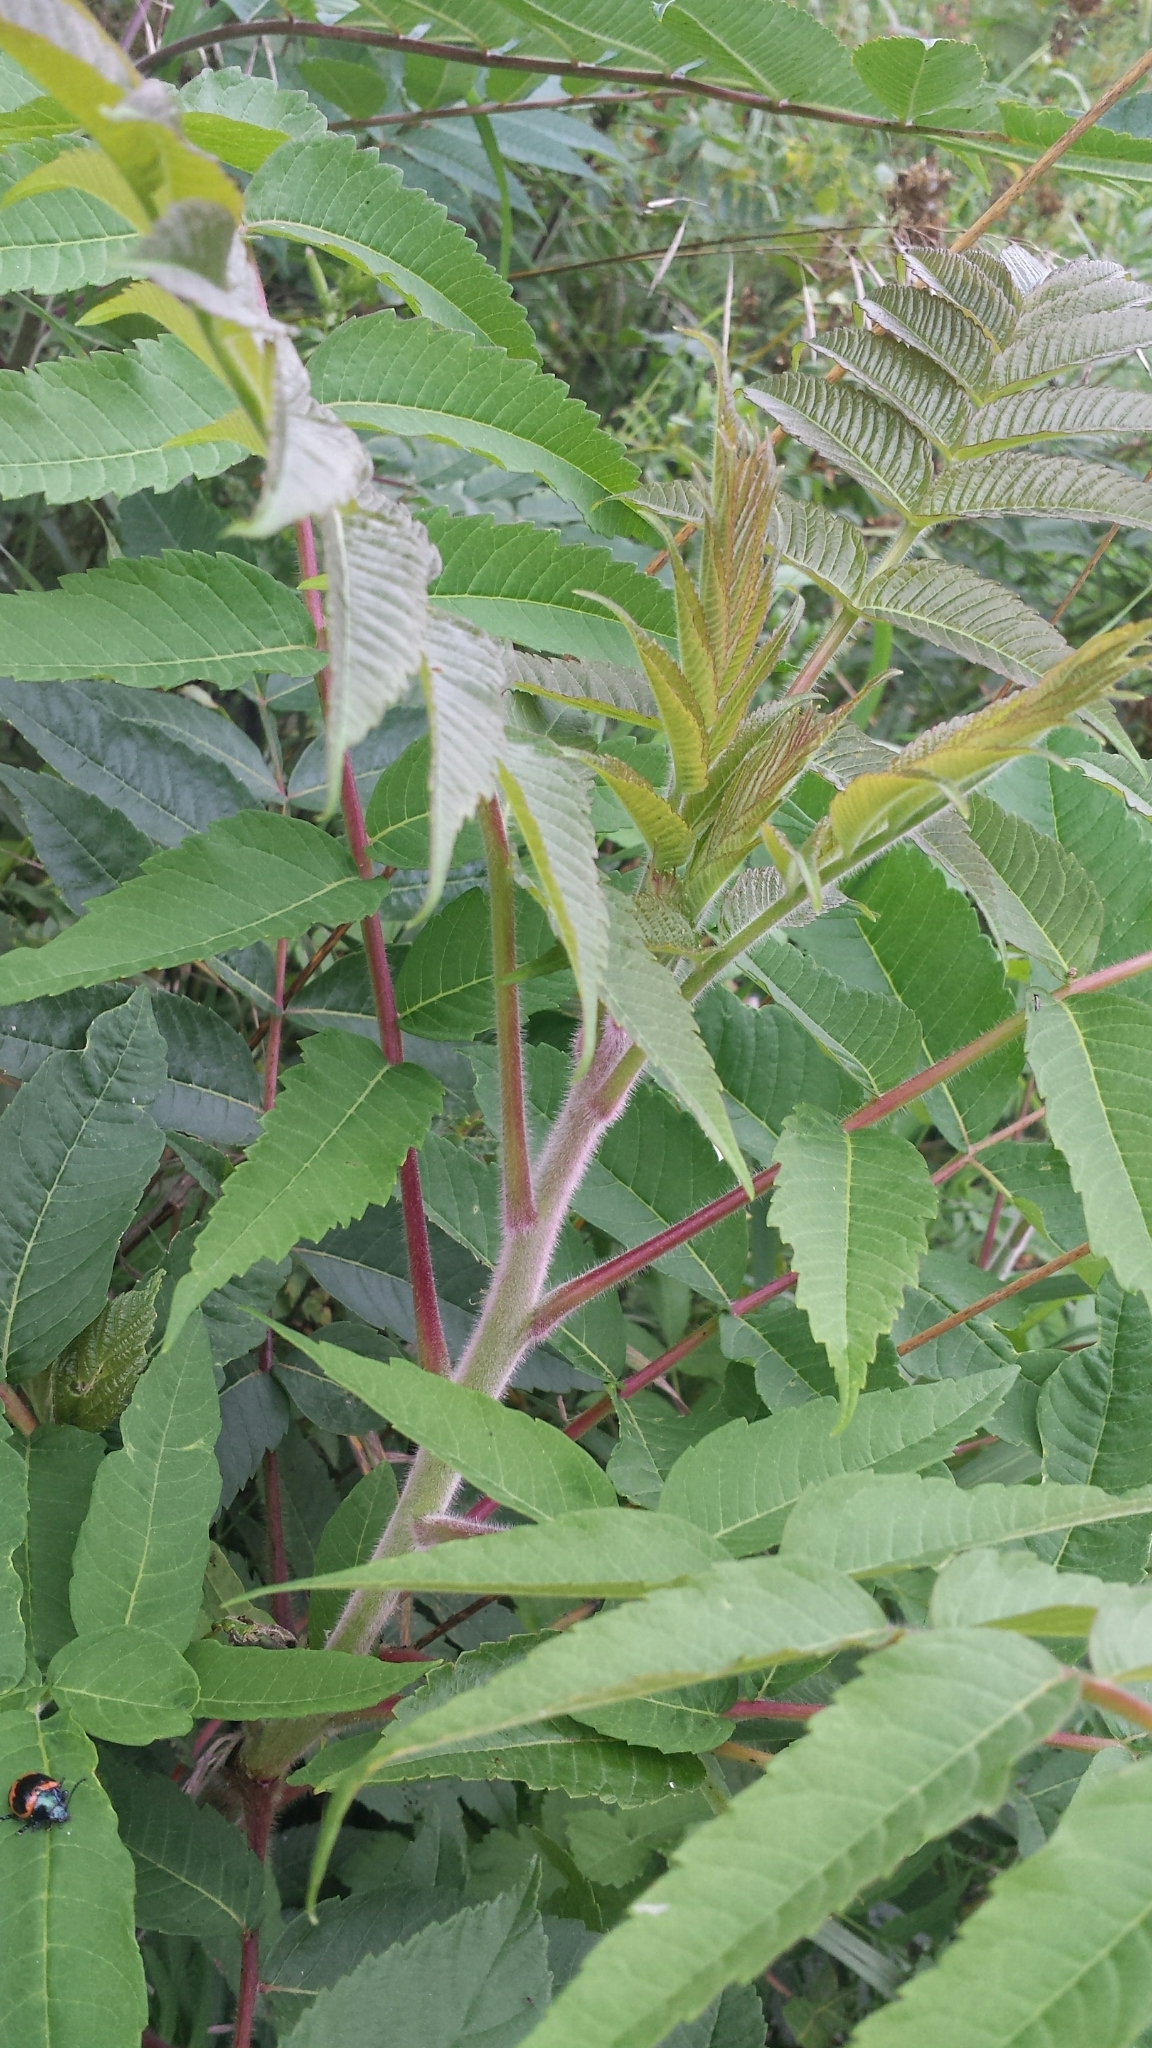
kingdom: Plantae
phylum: Tracheophyta
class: Magnoliopsida
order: Sapindales
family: Anacardiaceae
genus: Rhus
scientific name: Rhus typhina
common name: Staghorn sumac
